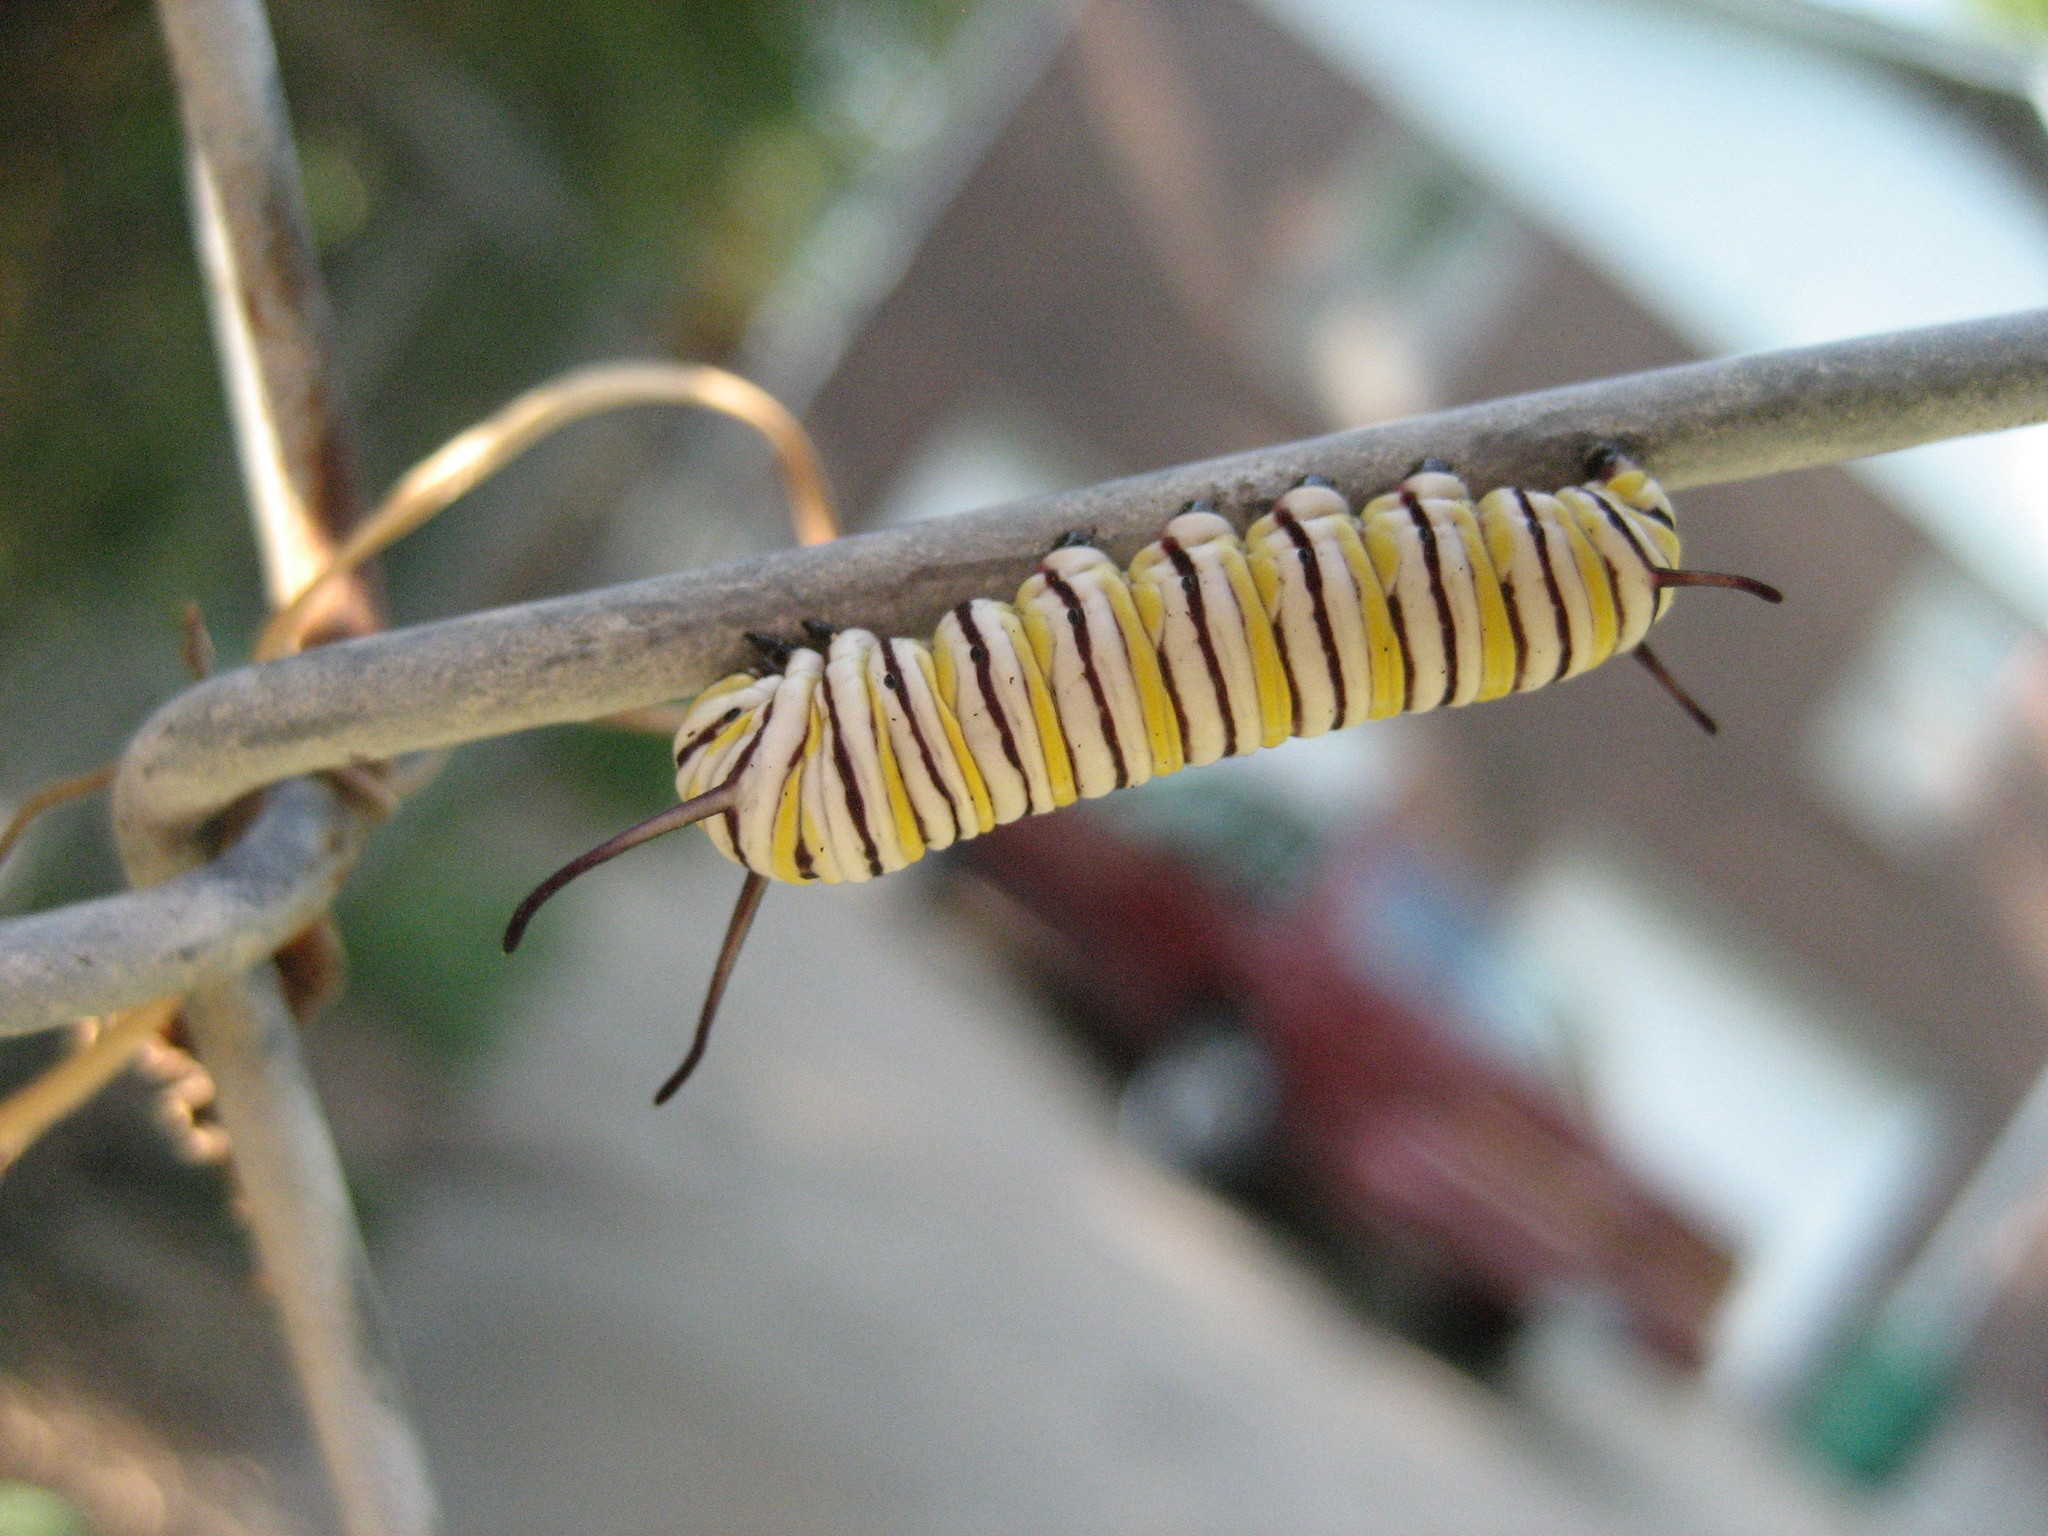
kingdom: Animalia
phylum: Arthropoda
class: Insecta
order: Lepidoptera
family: Nymphalidae
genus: Danaus
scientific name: Danaus plexippus
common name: Monarch
